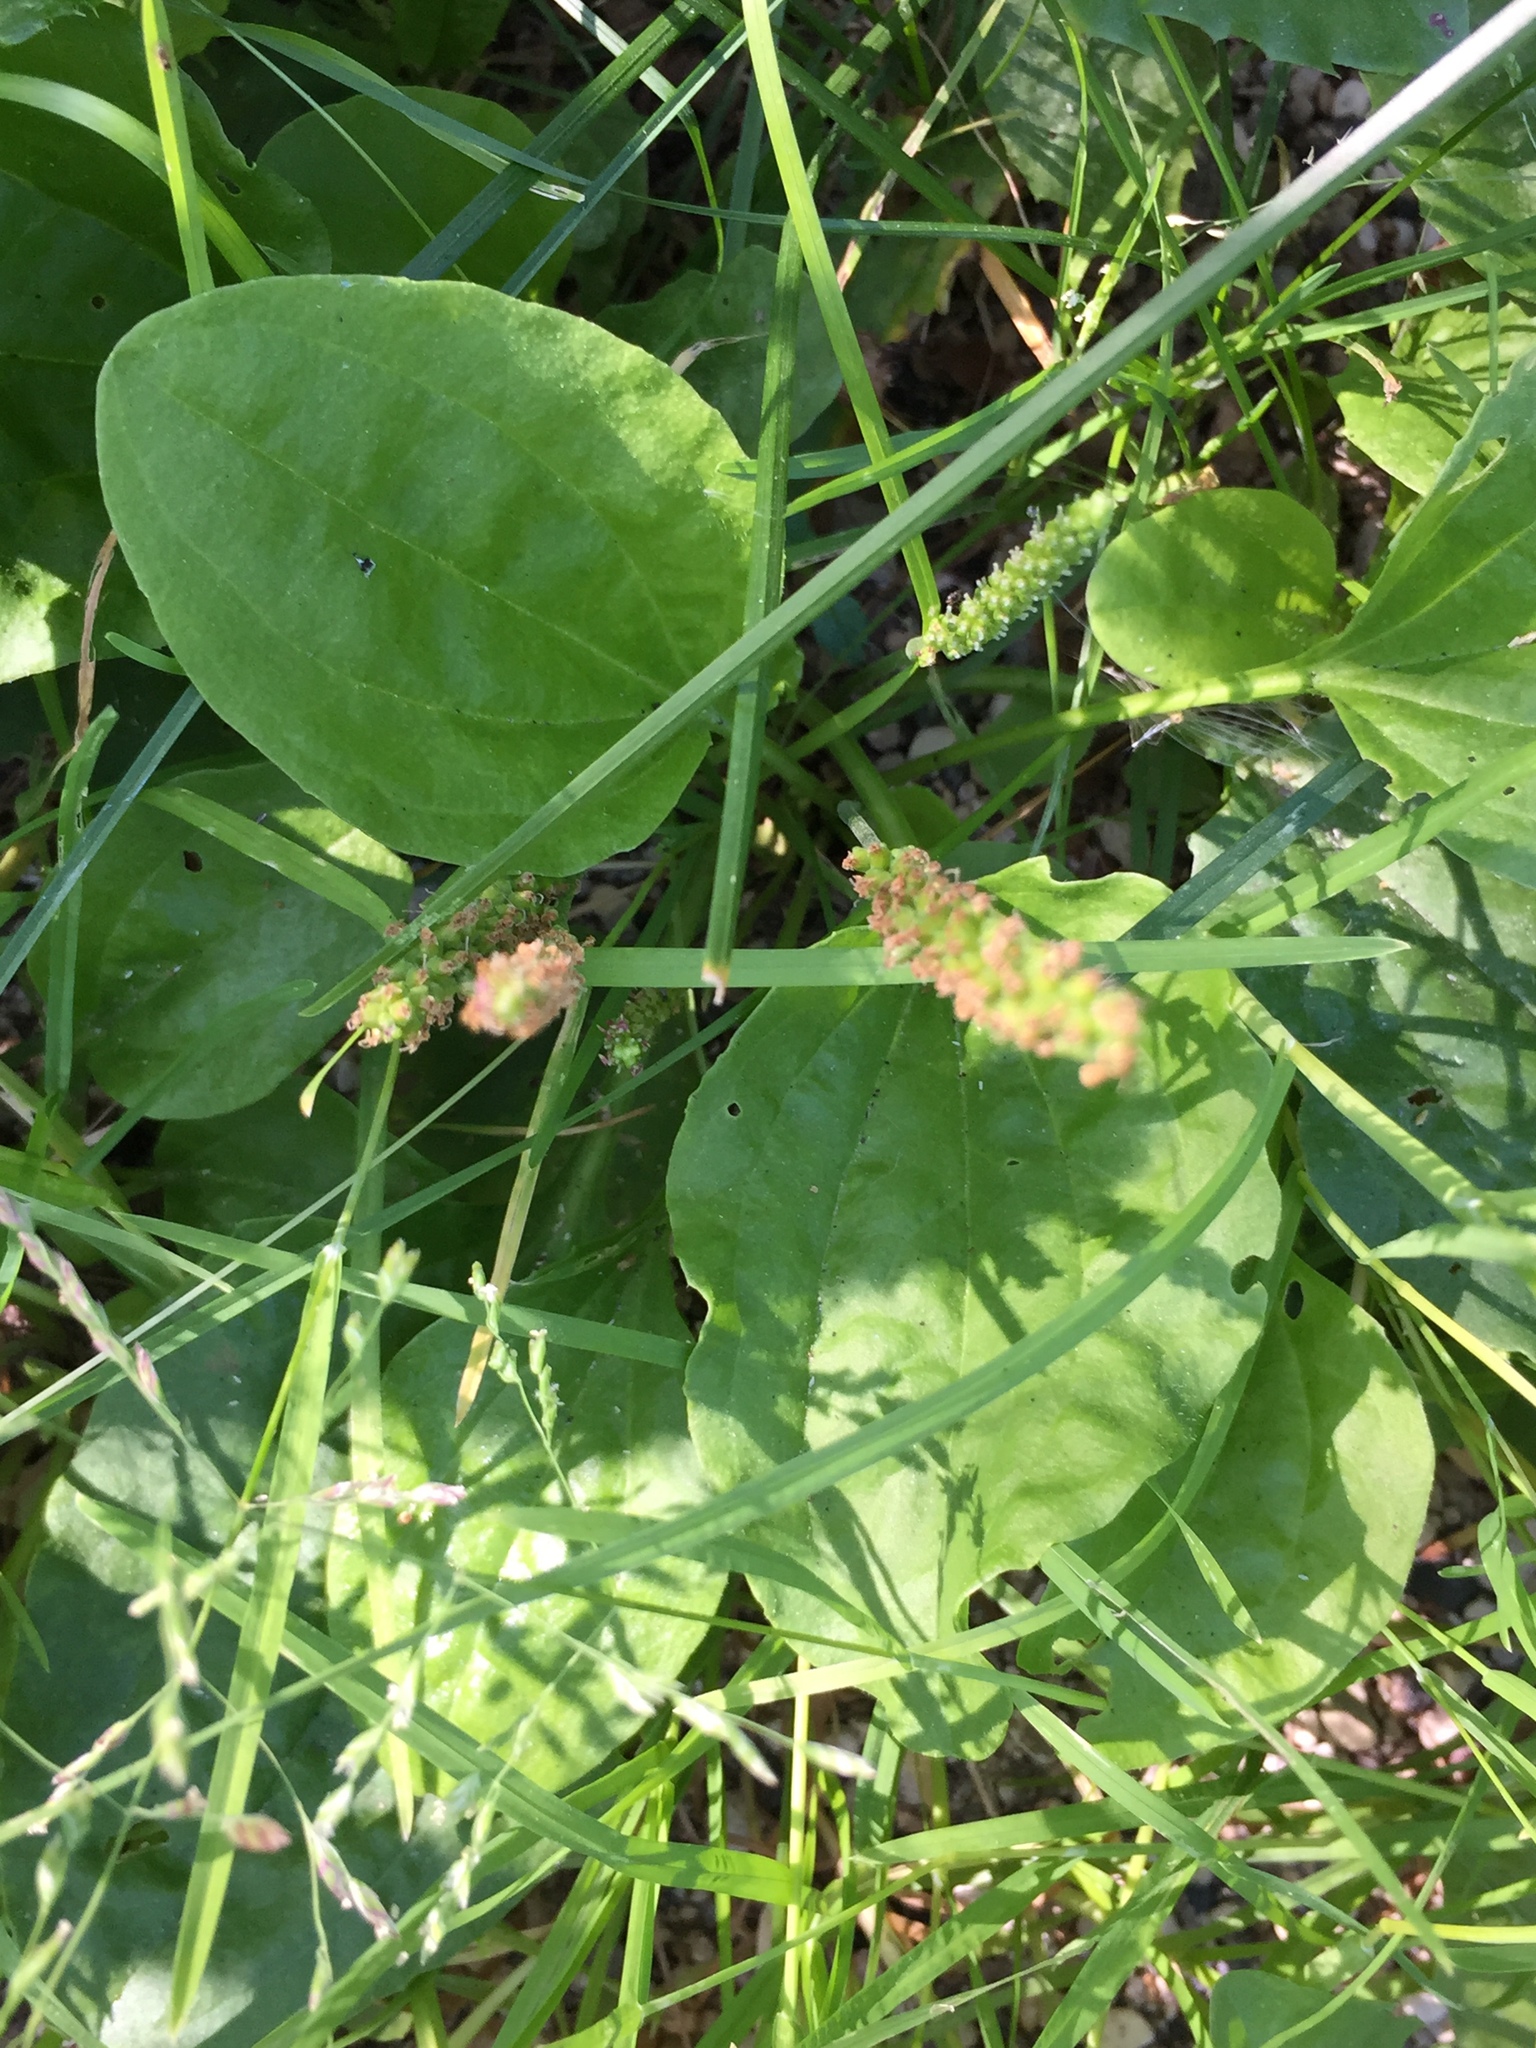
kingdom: Plantae
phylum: Tracheophyta
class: Magnoliopsida
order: Lamiales
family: Plantaginaceae
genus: Plantago
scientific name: Plantago major
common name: Common plantain
